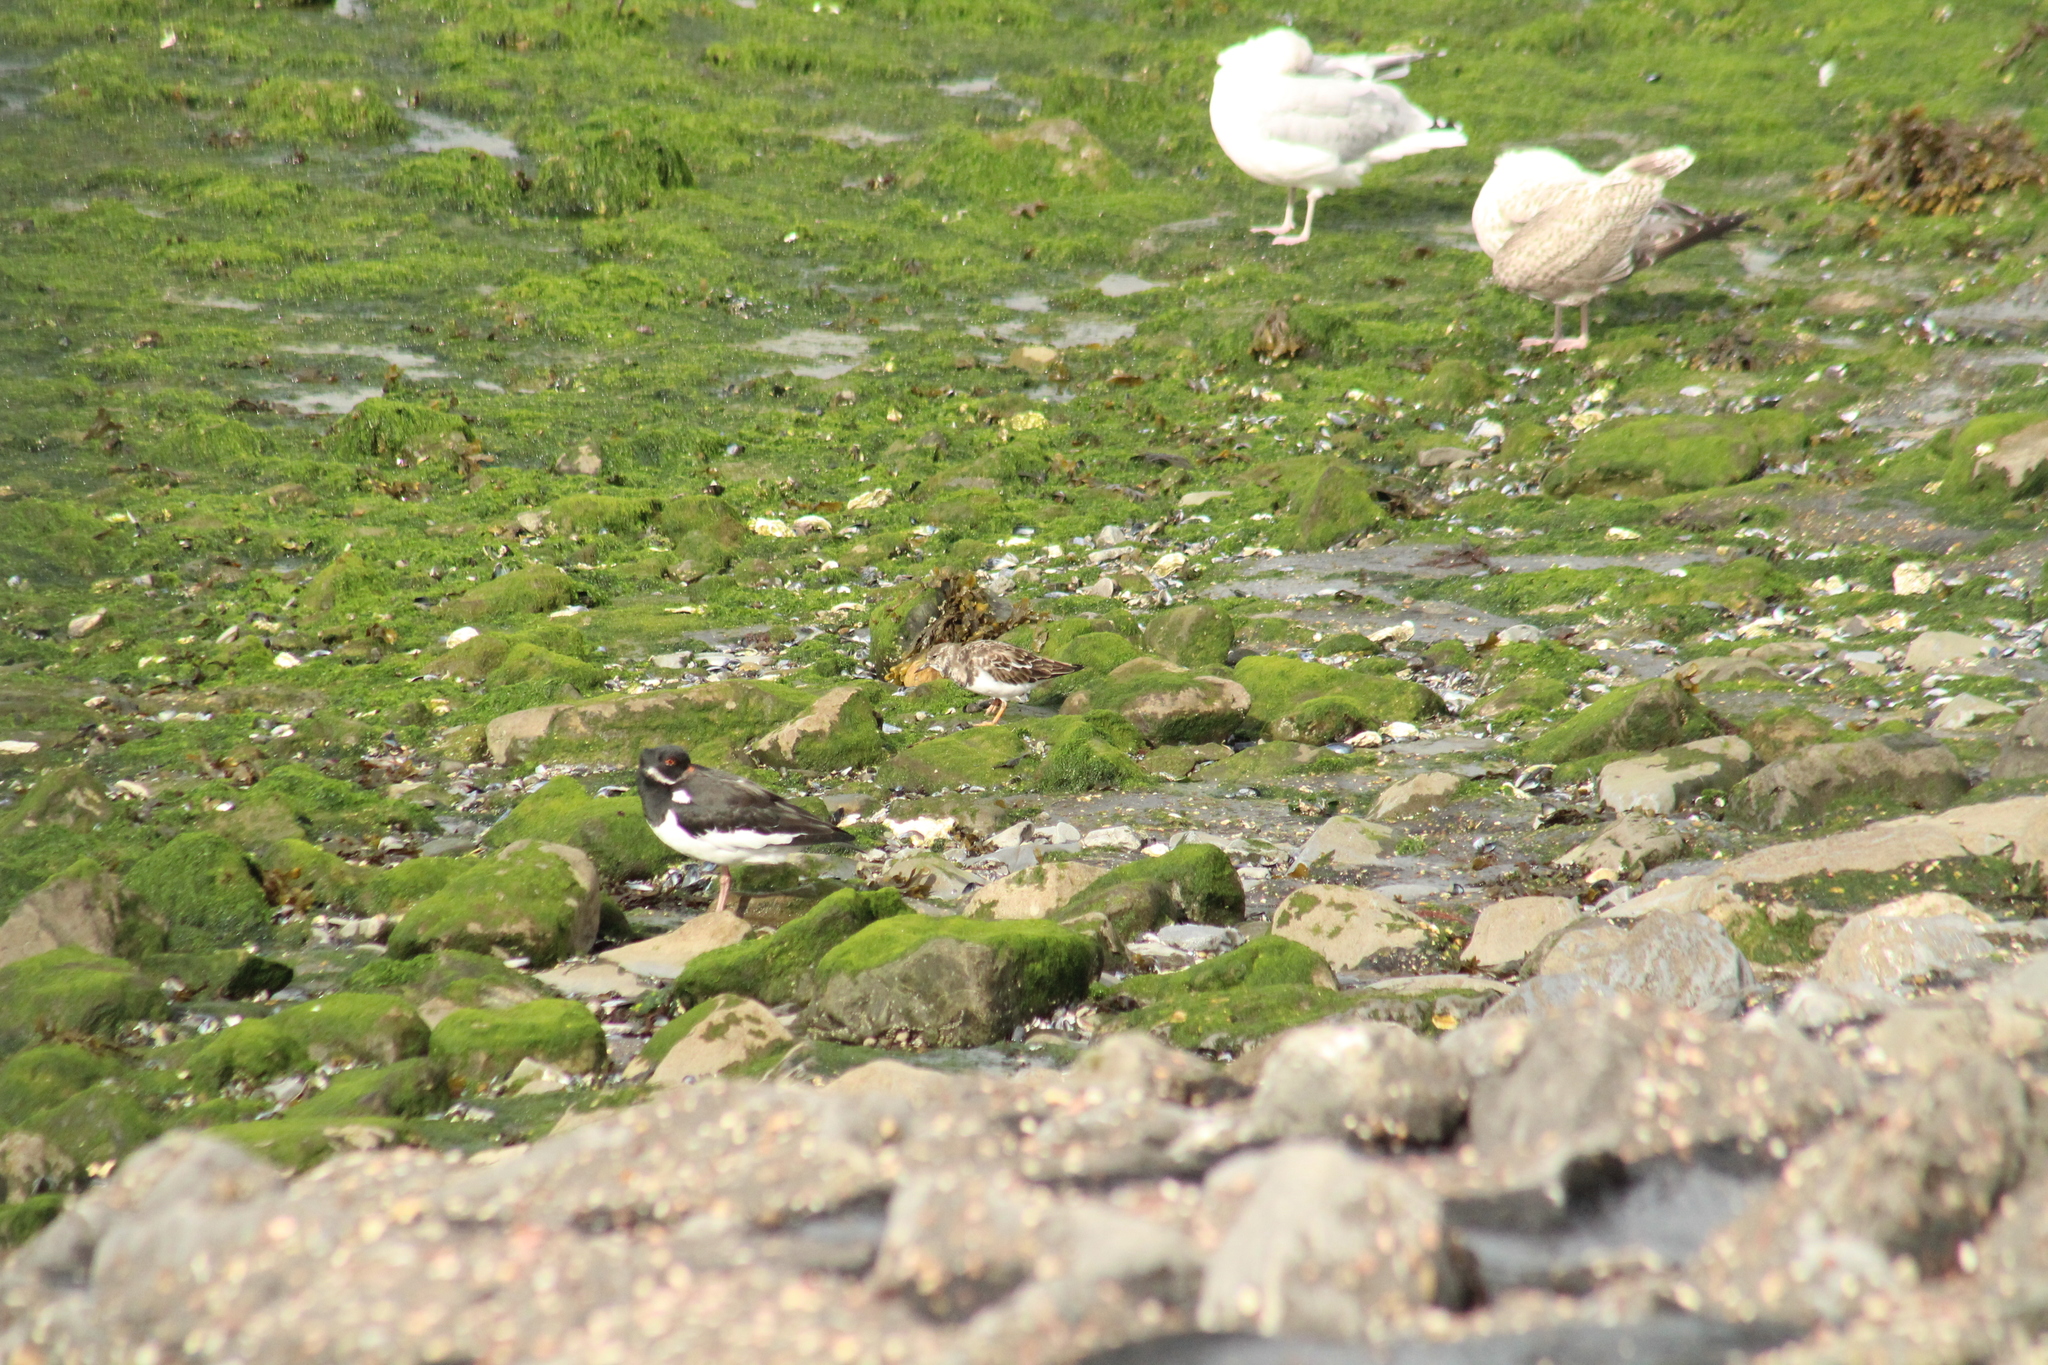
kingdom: Animalia
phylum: Chordata
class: Aves
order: Charadriiformes
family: Scolopacidae
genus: Arenaria
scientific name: Arenaria interpres
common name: Ruddy turnstone
